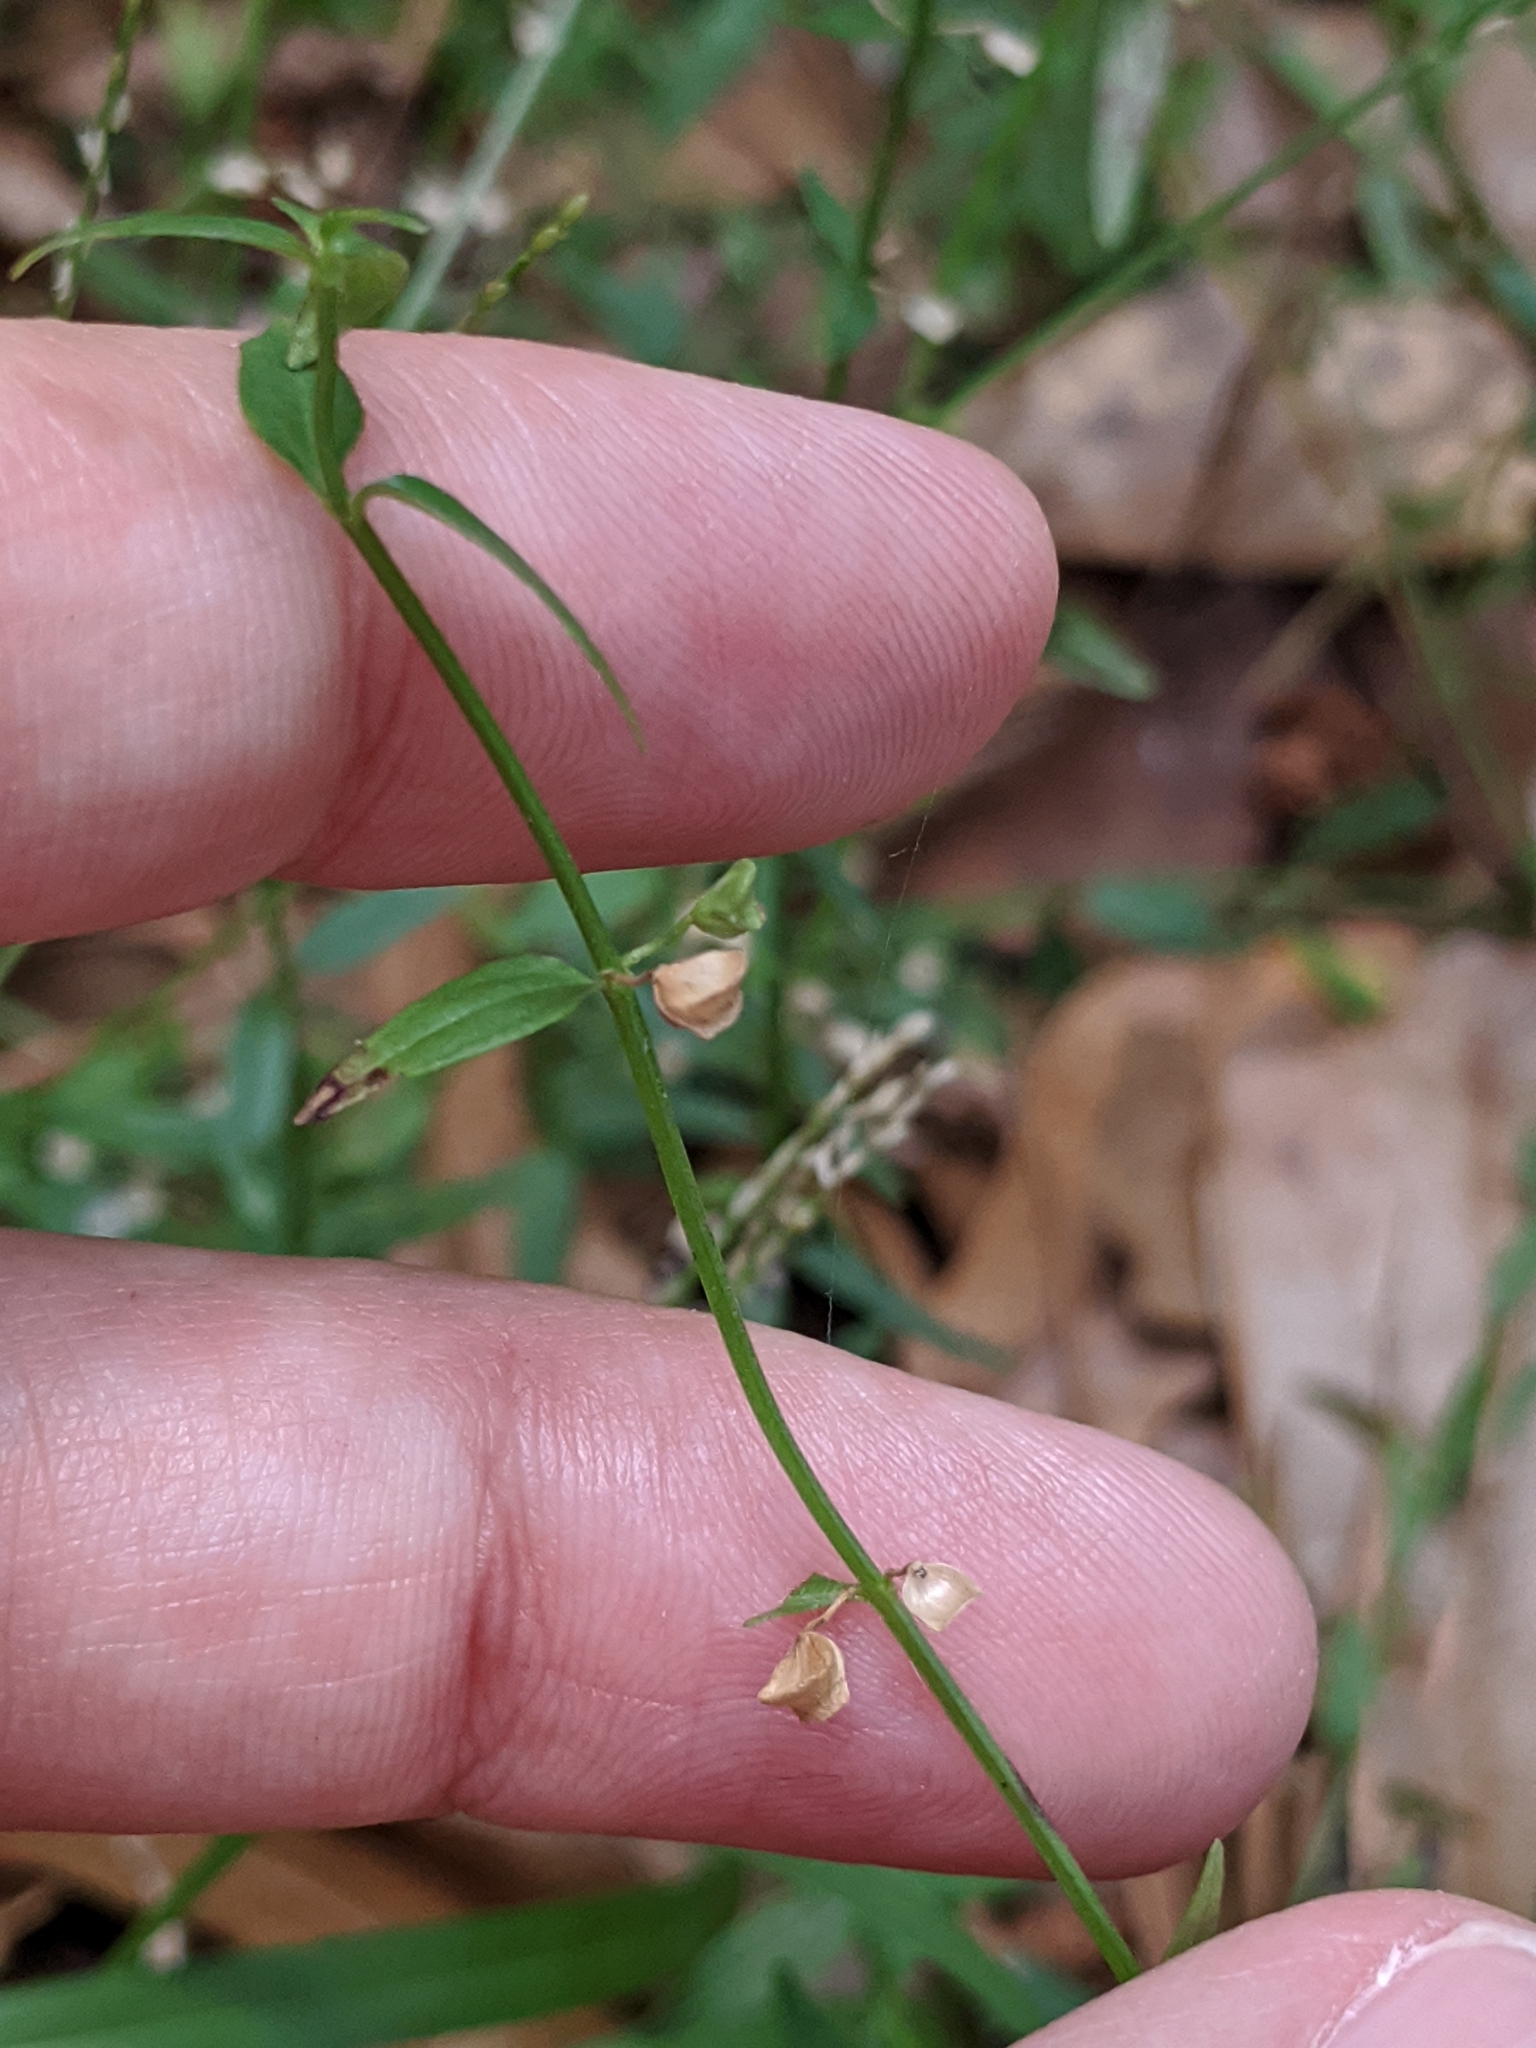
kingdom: Plantae
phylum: Tracheophyta
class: Magnoliopsida
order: Lamiales
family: Lamiaceae
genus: Scutellaria
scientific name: Scutellaria racemosa
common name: South american skullcap
